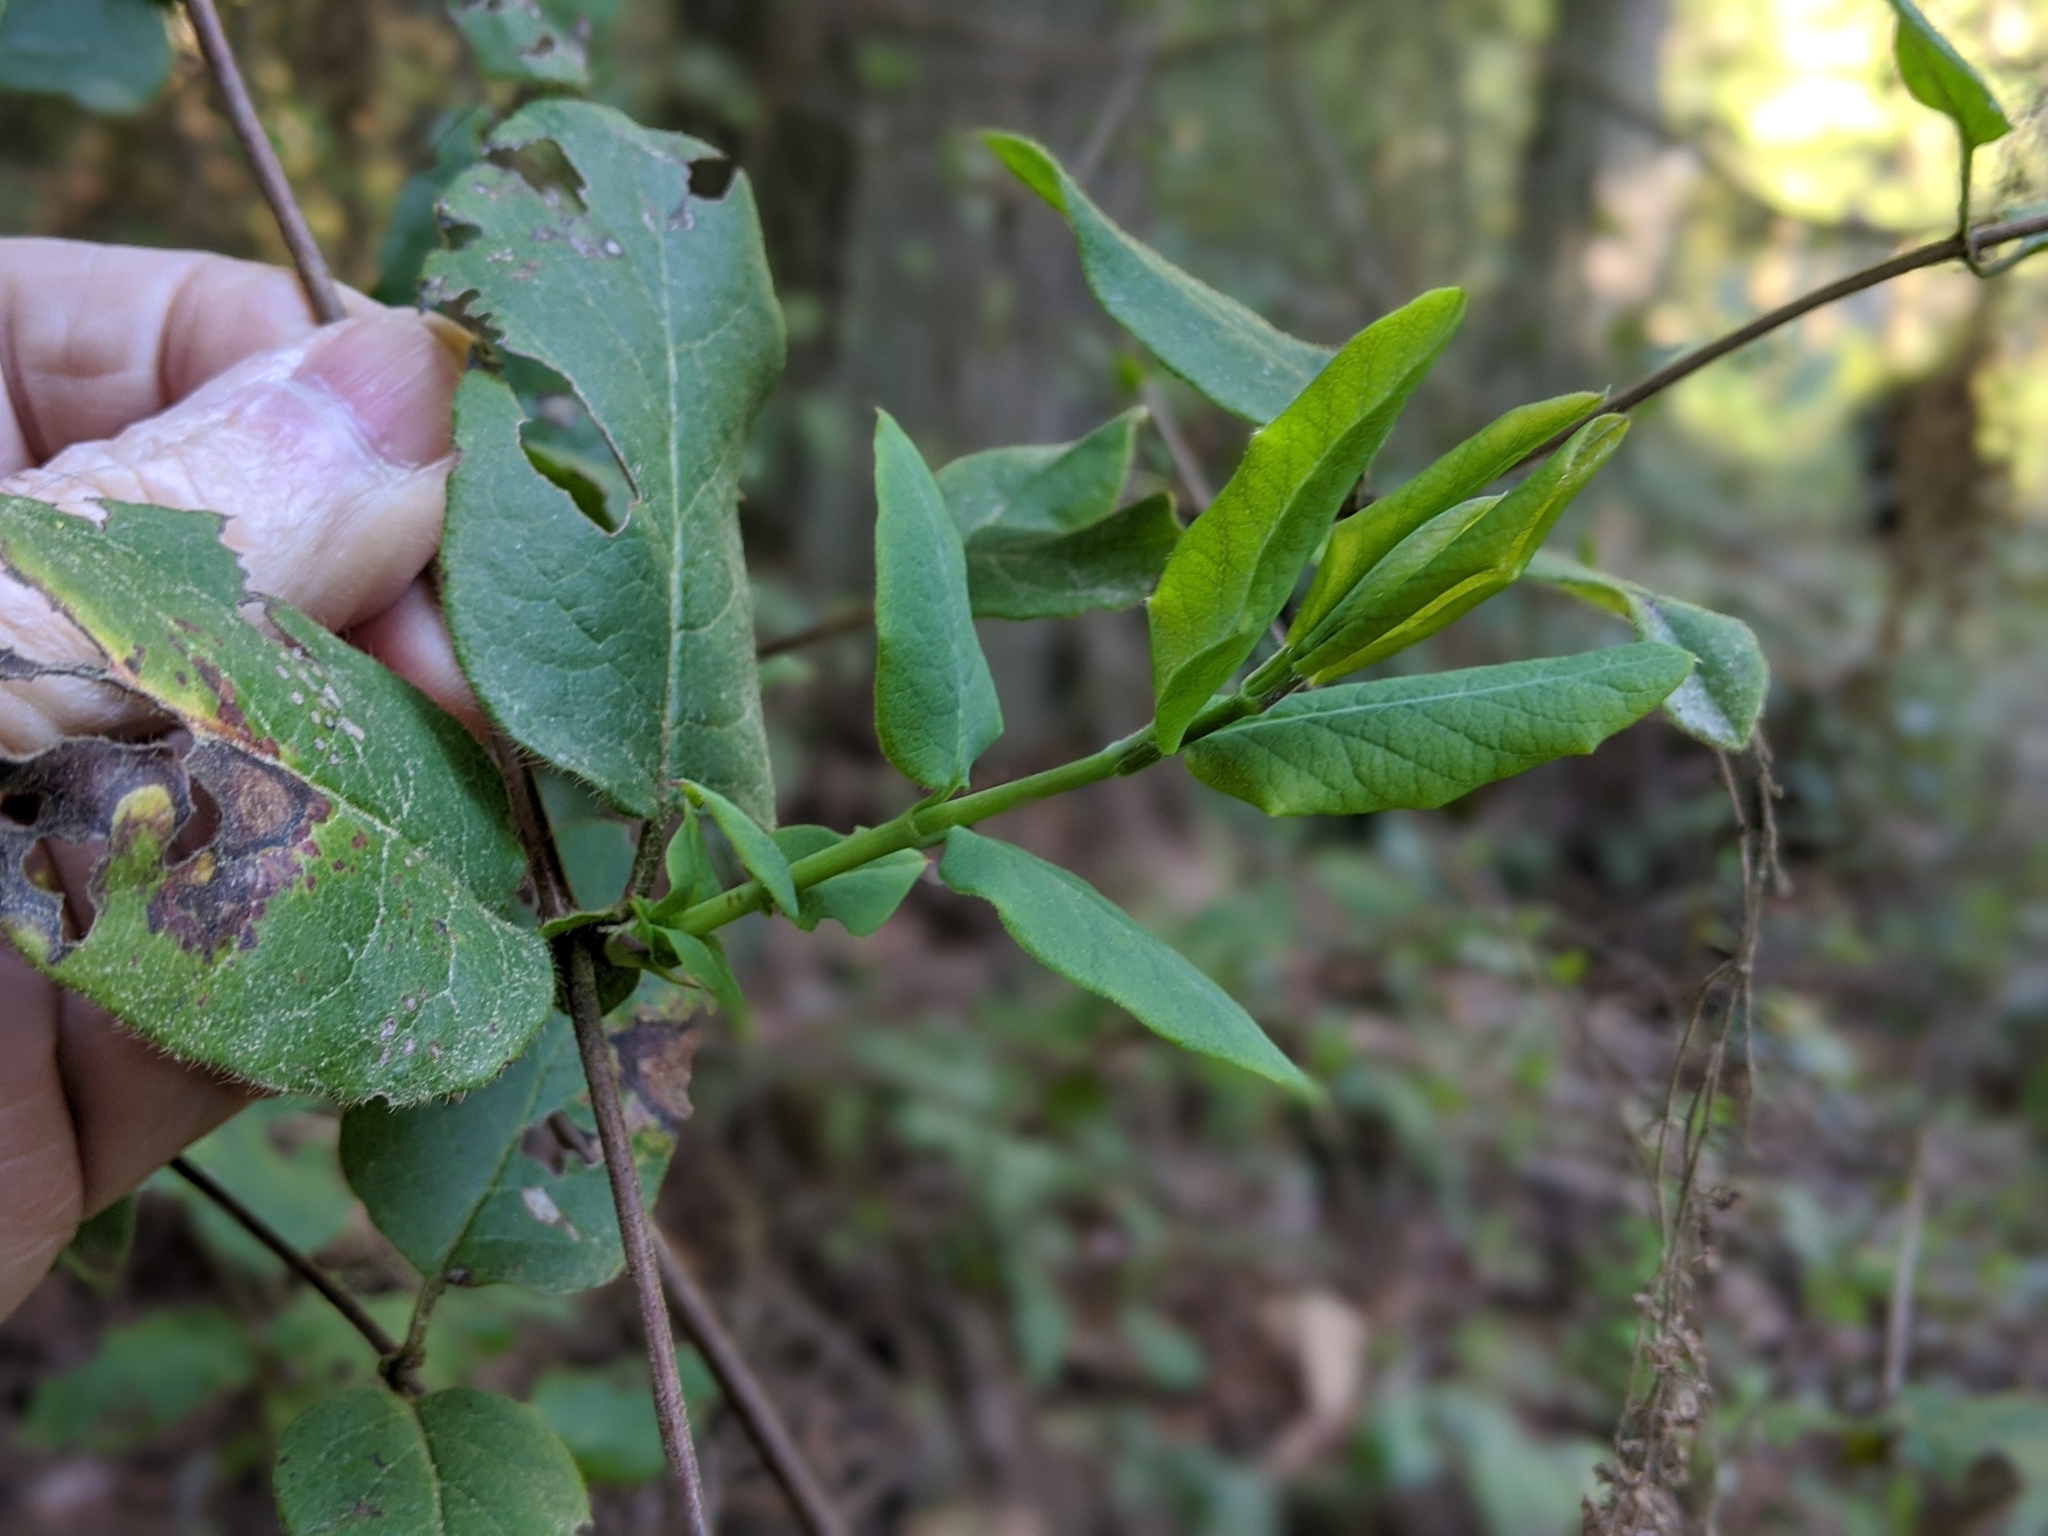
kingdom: Plantae
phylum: Tracheophyta
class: Magnoliopsida
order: Dipsacales
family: Caprifoliaceae
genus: Lonicera
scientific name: Lonicera hispidula
